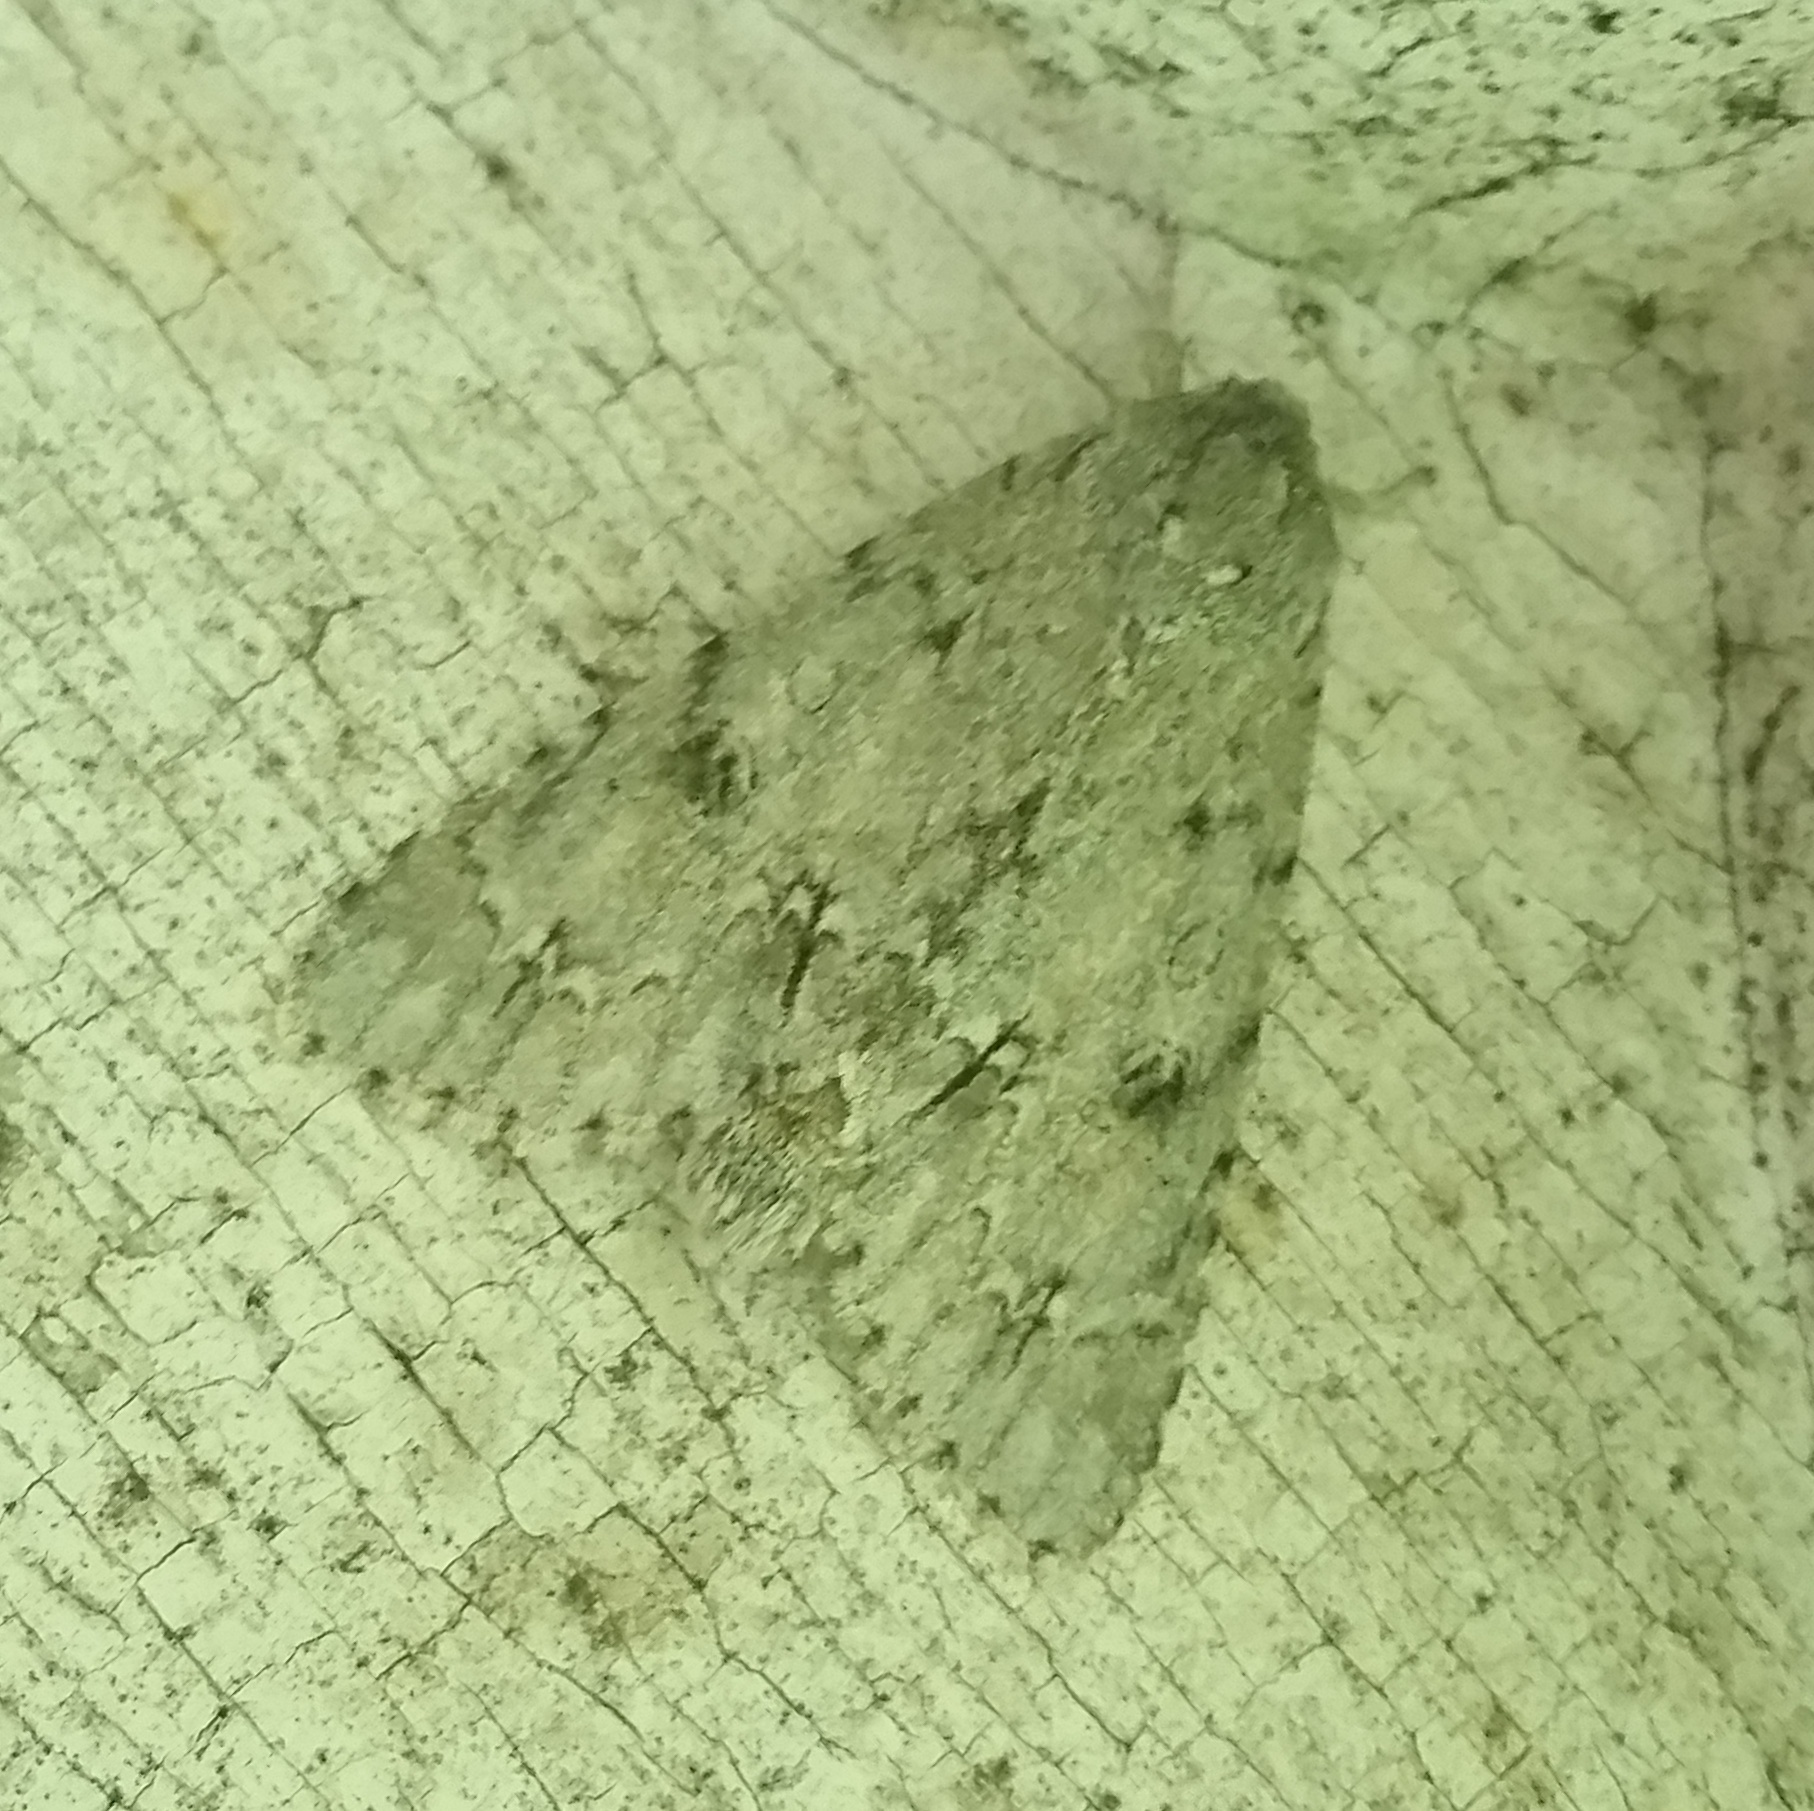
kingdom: Animalia
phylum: Arthropoda
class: Insecta
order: Lepidoptera
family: Noctuidae
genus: Acronicta
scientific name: Acronicta americana
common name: American dagger
